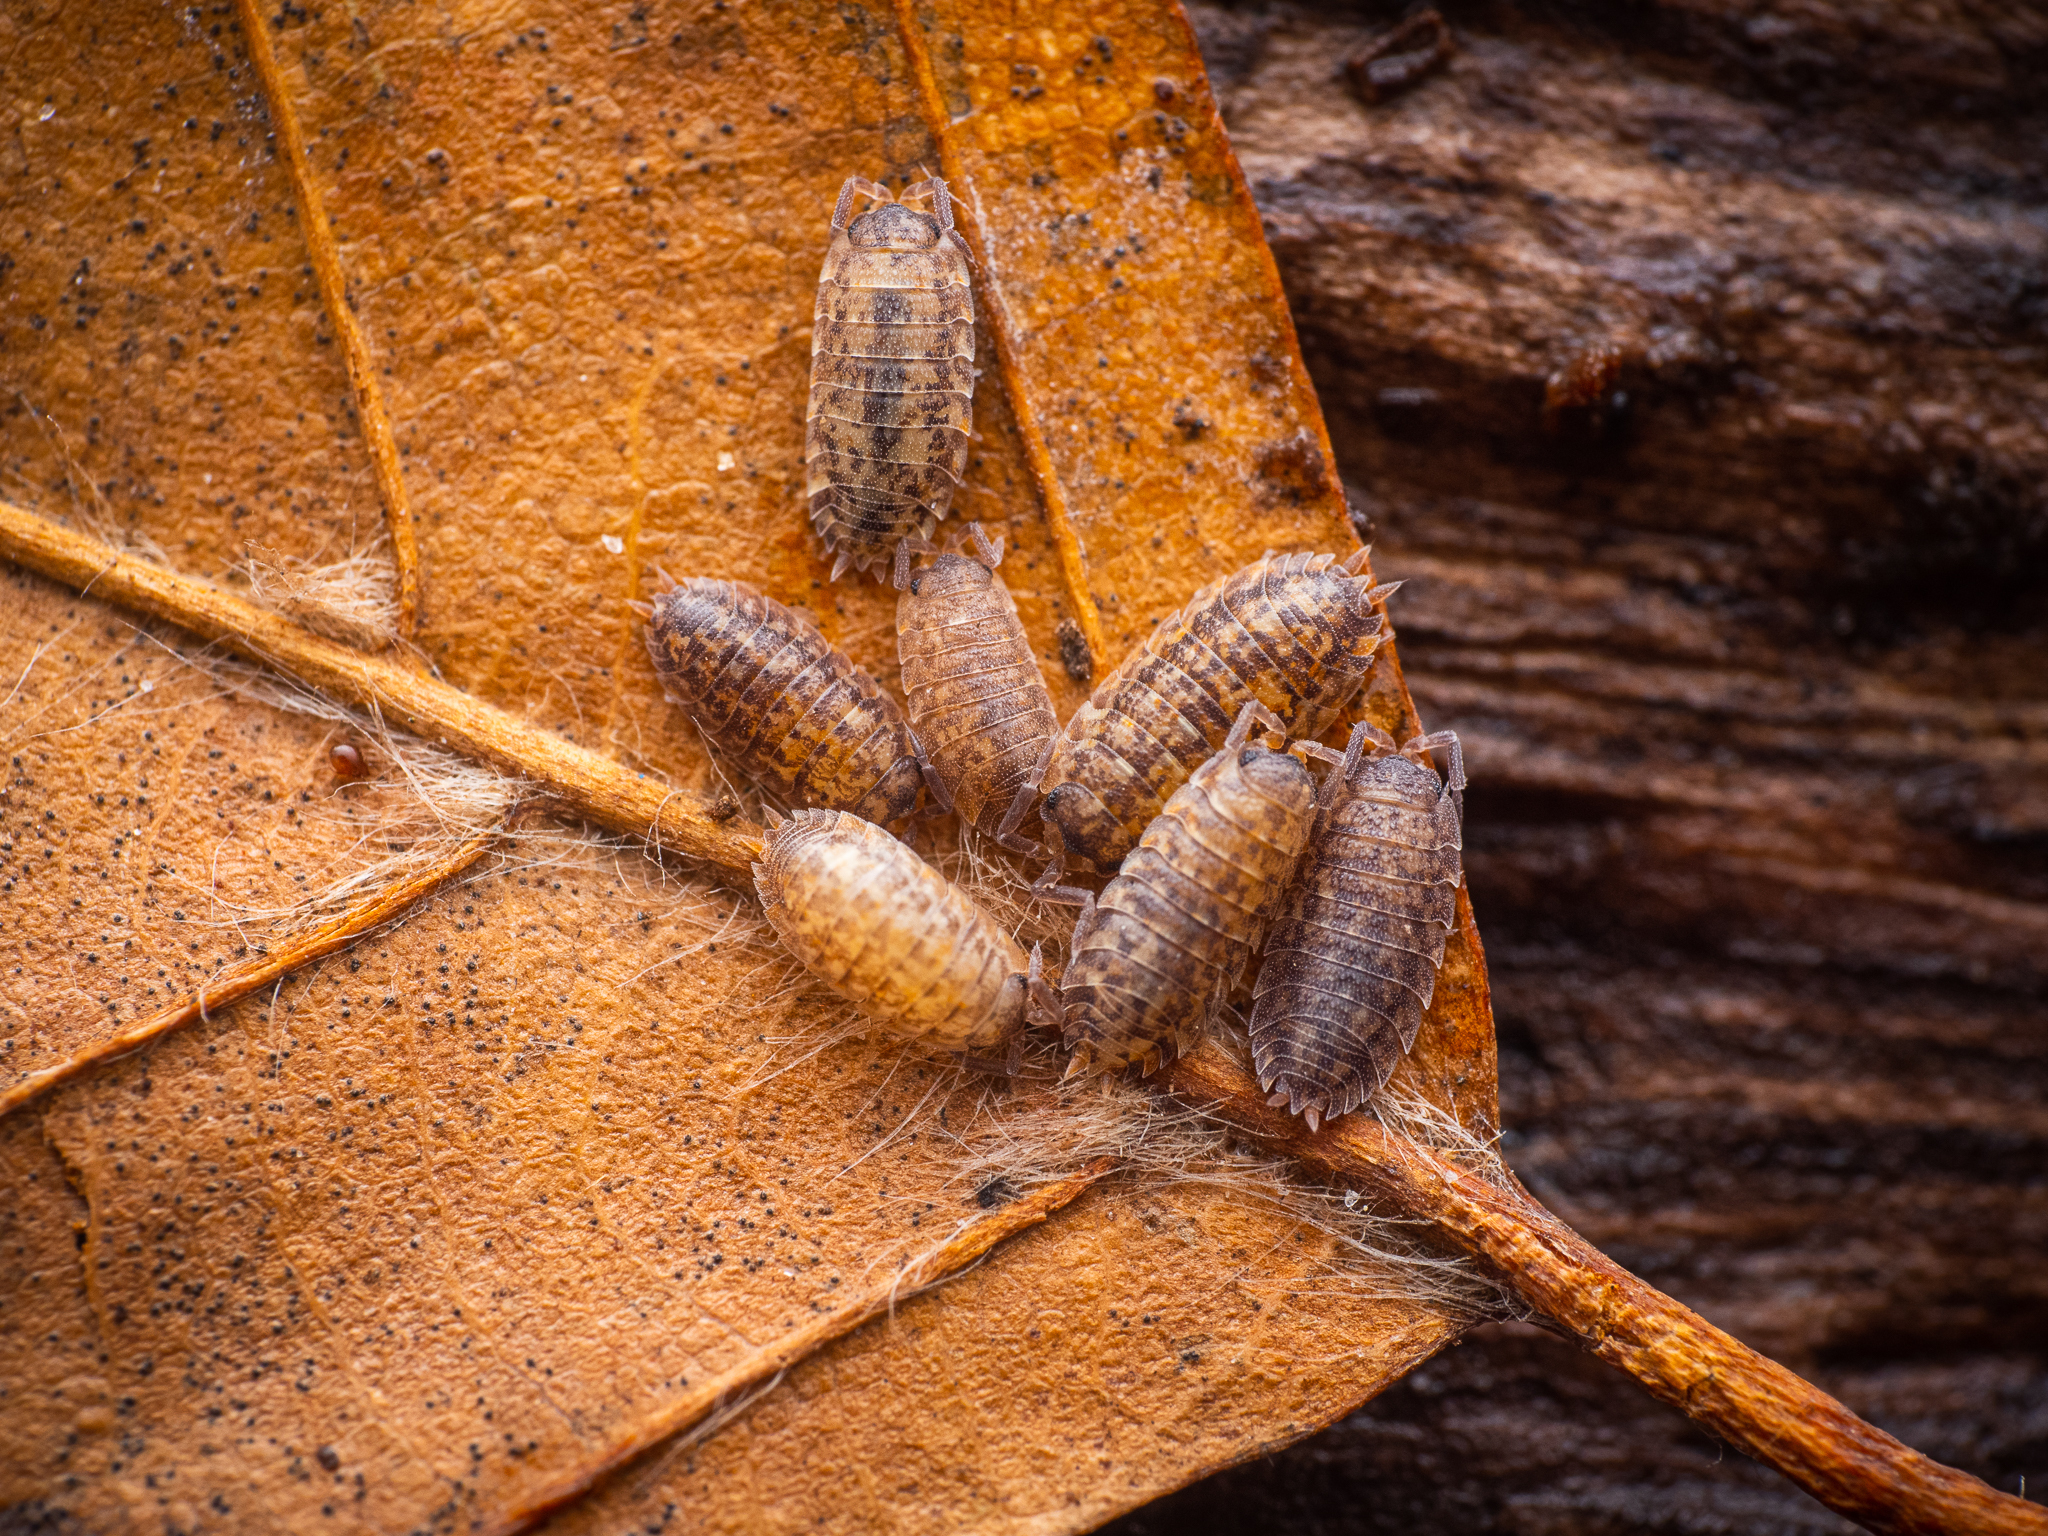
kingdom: Animalia
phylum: Arthropoda
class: Malacostraca
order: Isopoda
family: Porcellionidae
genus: Porcellio
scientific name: Porcellio scaber
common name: Common rough woodlouse
